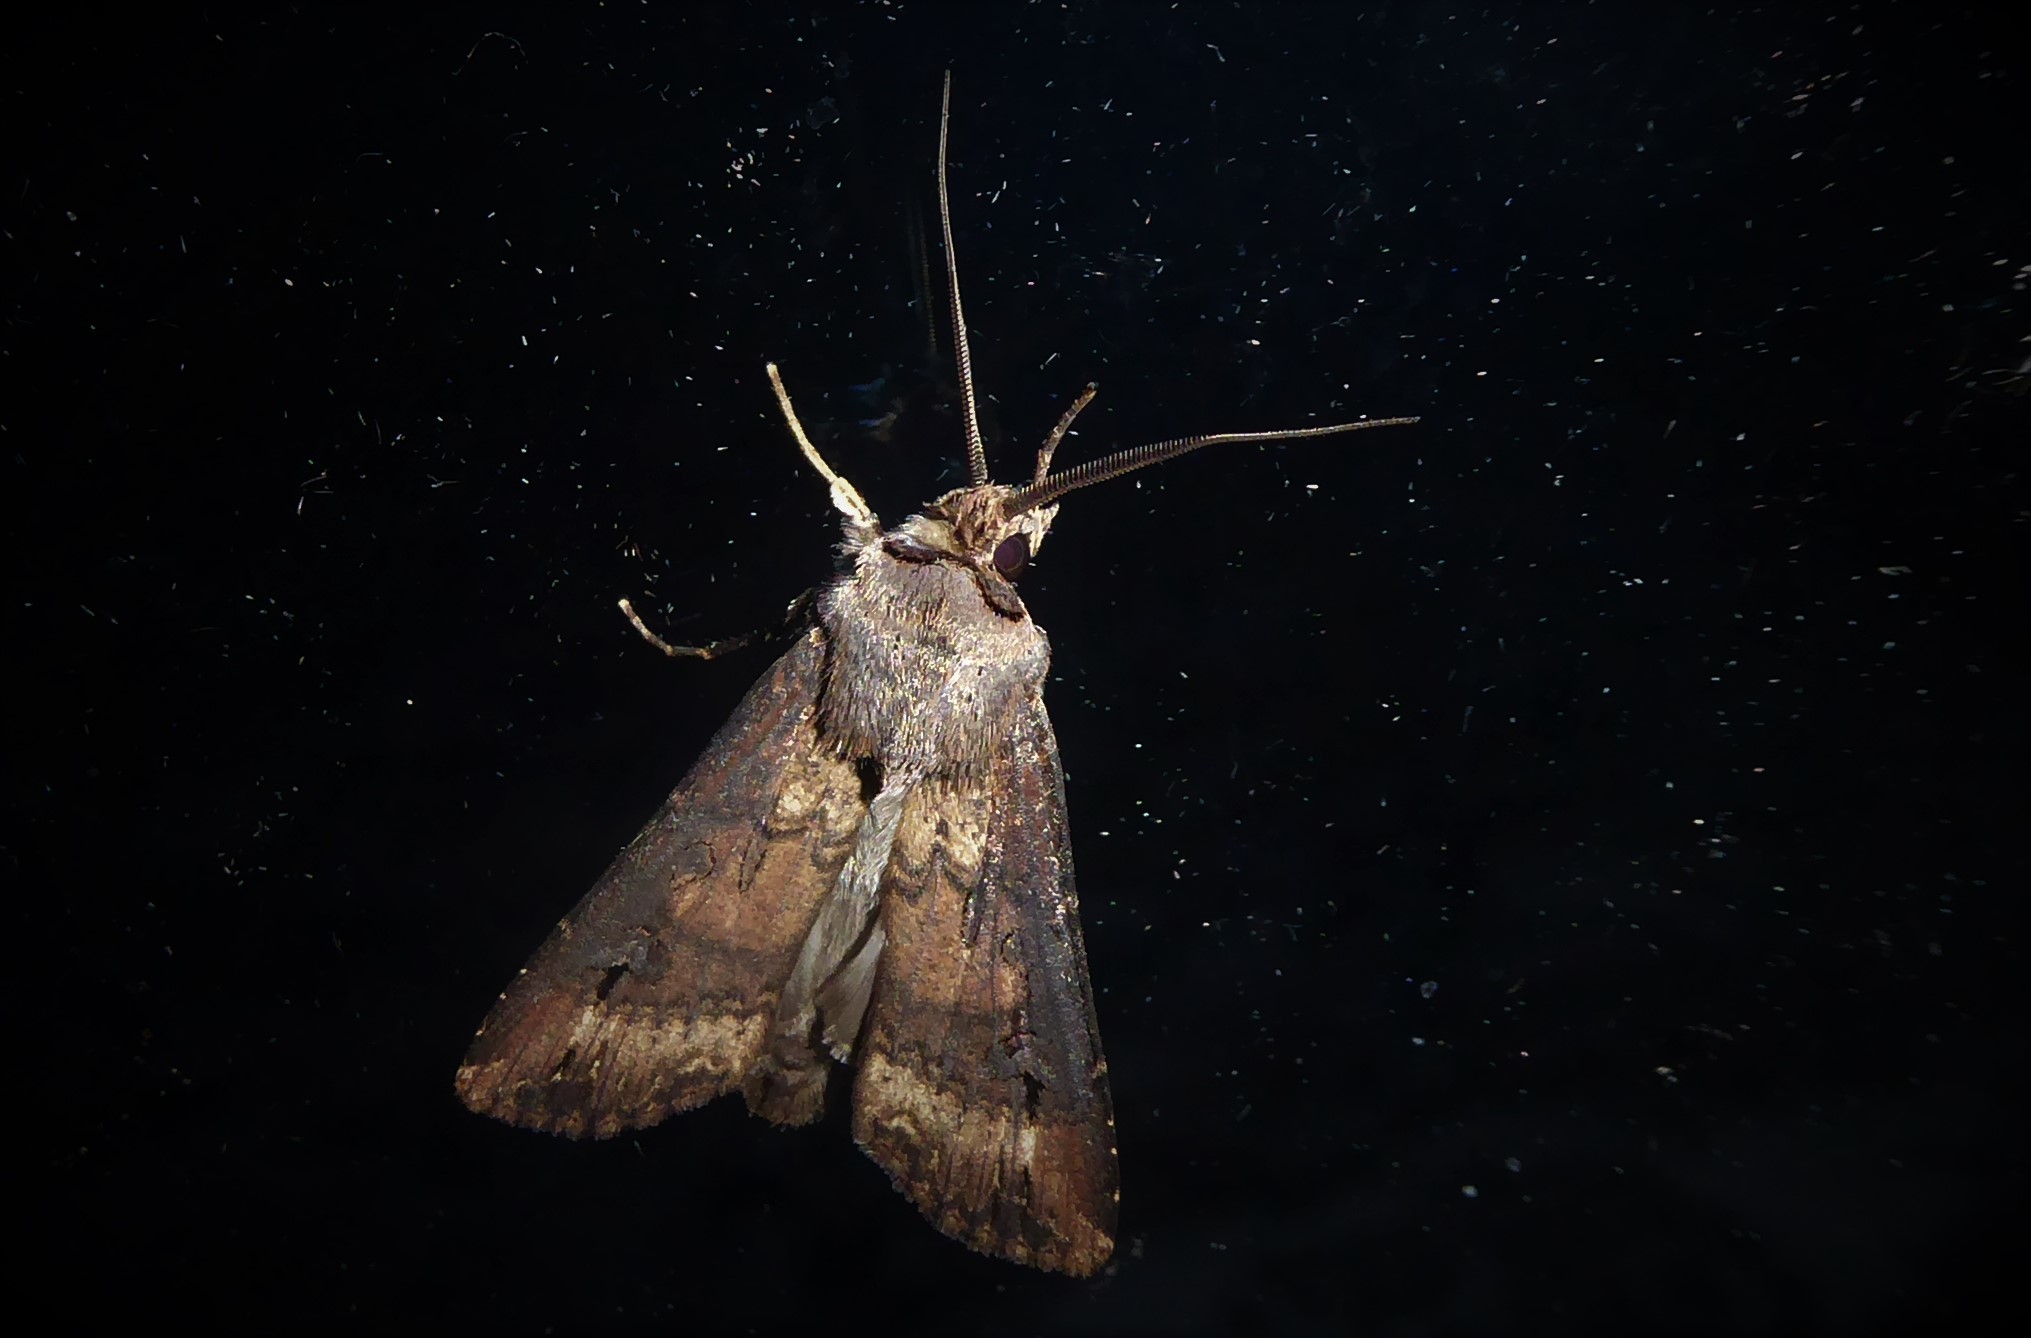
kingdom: Animalia
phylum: Arthropoda
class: Insecta
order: Lepidoptera
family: Noctuidae
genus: Agrotis
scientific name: Agrotis ipsilon
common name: Dark sword-grass
